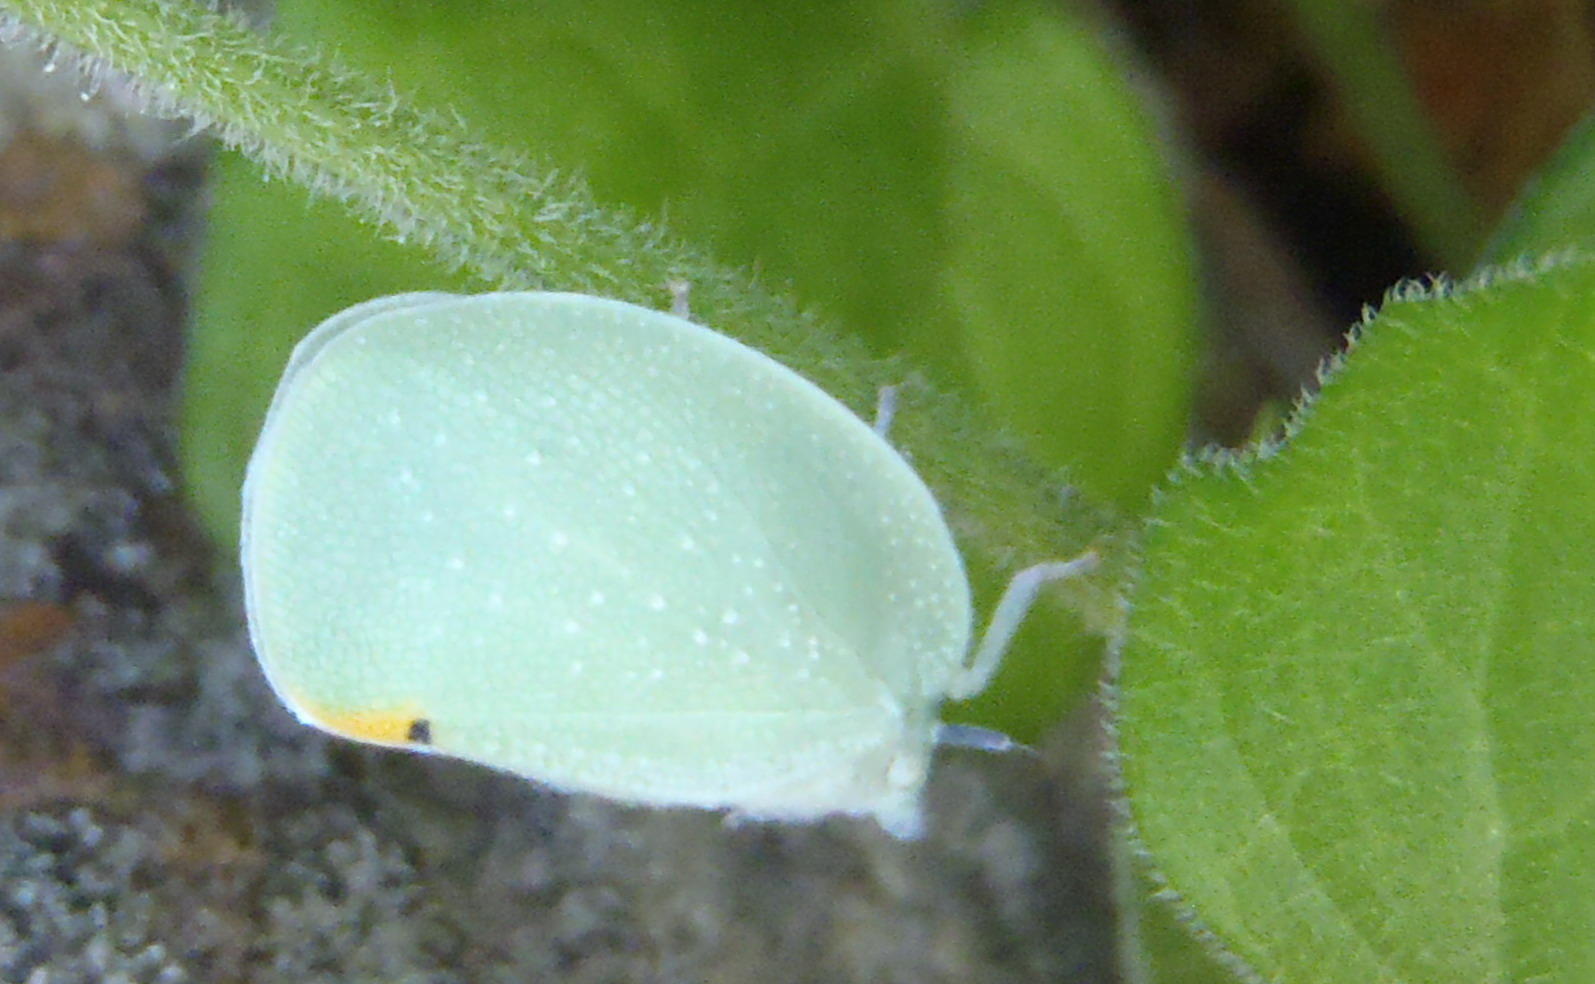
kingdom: Animalia
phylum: Arthropoda
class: Insecta
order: Hemiptera
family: Flatidae
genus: Dalapax
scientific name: Dalapax postica
